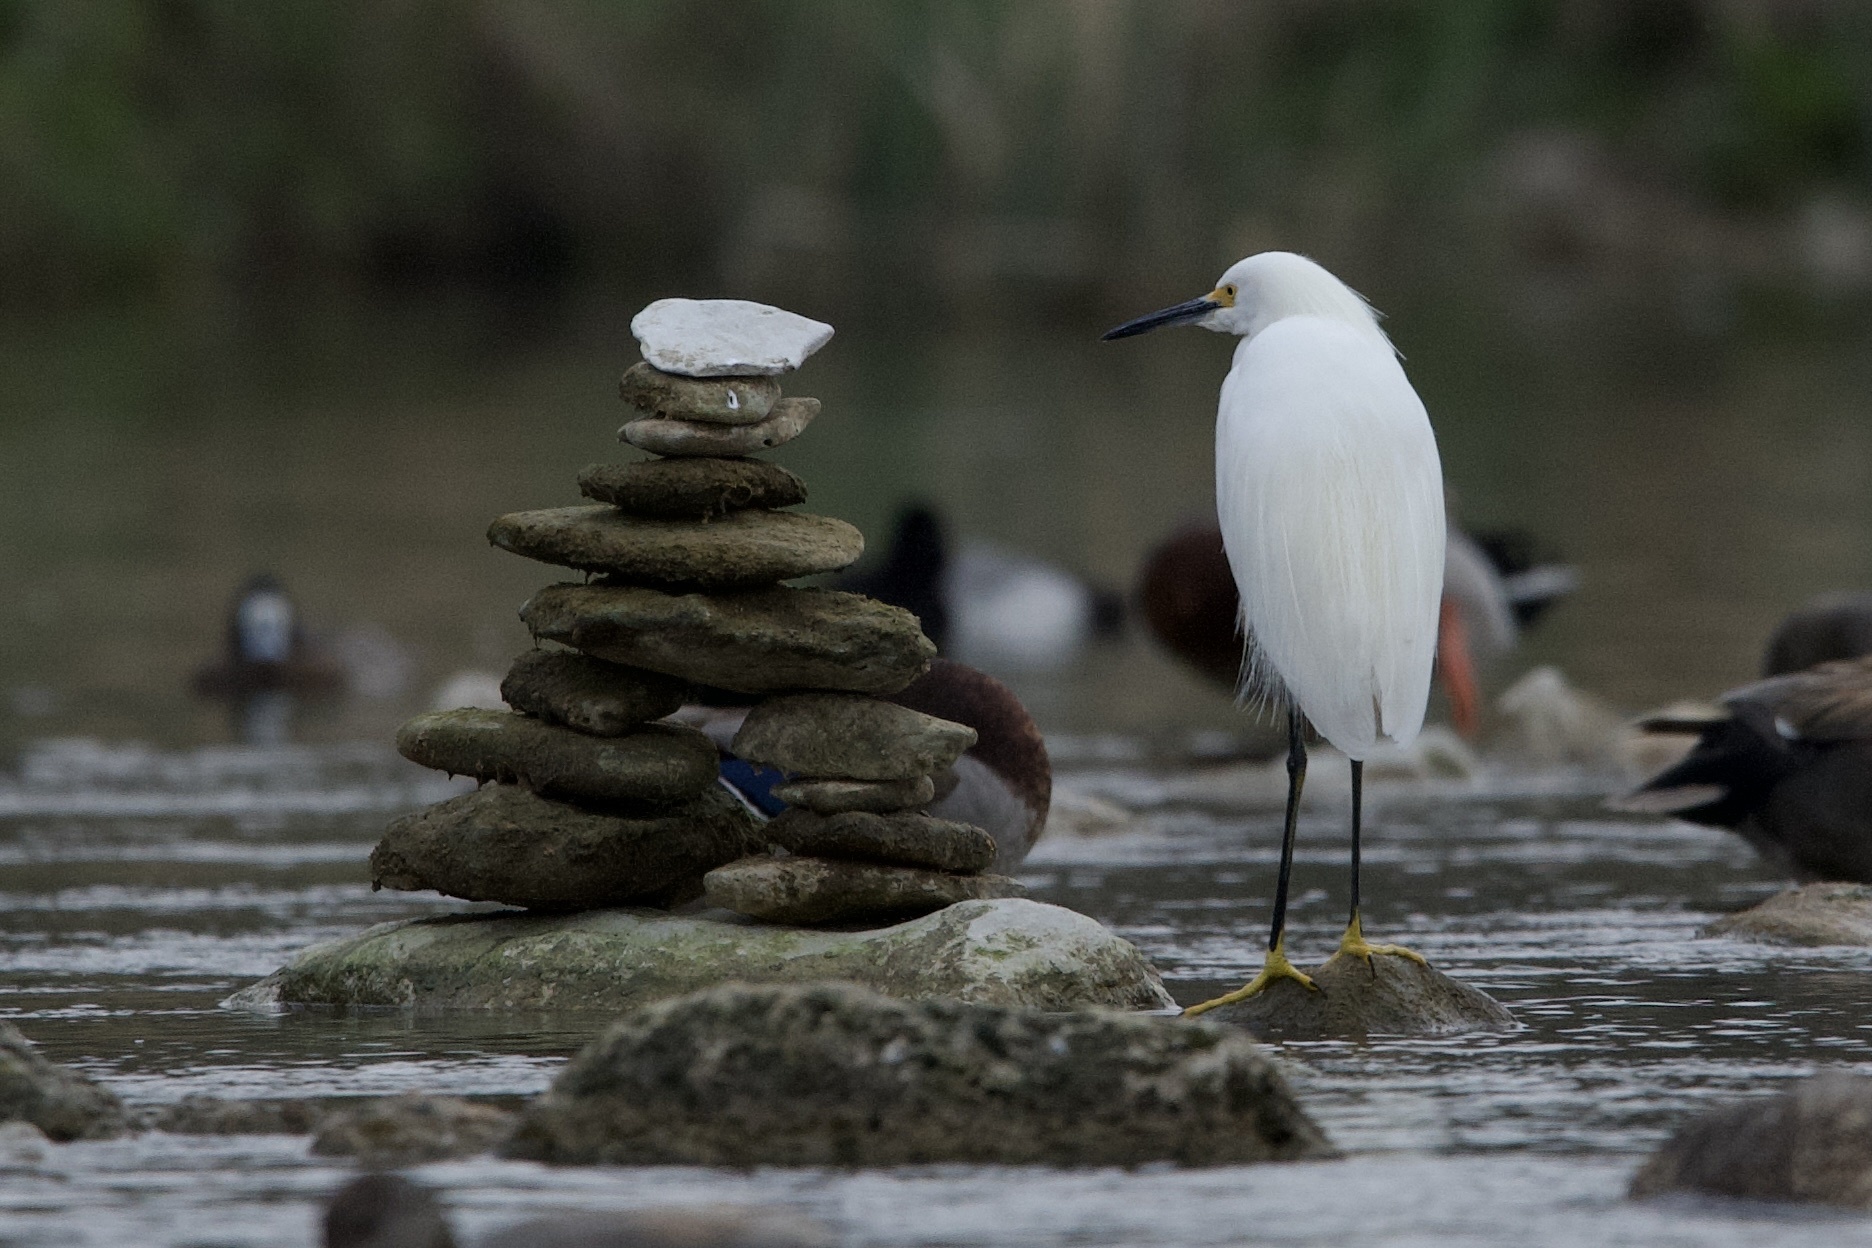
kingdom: Animalia
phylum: Chordata
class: Aves
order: Pelecaniformes
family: Ardeidae
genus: Egretta
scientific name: Egretta thula
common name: Snowy egret
